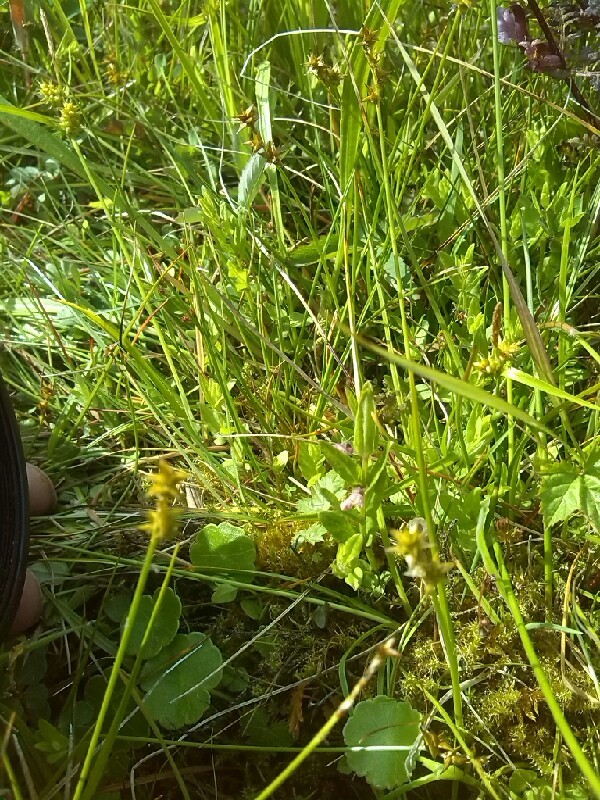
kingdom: Plantae
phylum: Tracheophyta
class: Magnoliopsida
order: Lamiales
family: Lamiaceae
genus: Scutellaria
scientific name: Scutellaria minor
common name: Lesser skullcap
